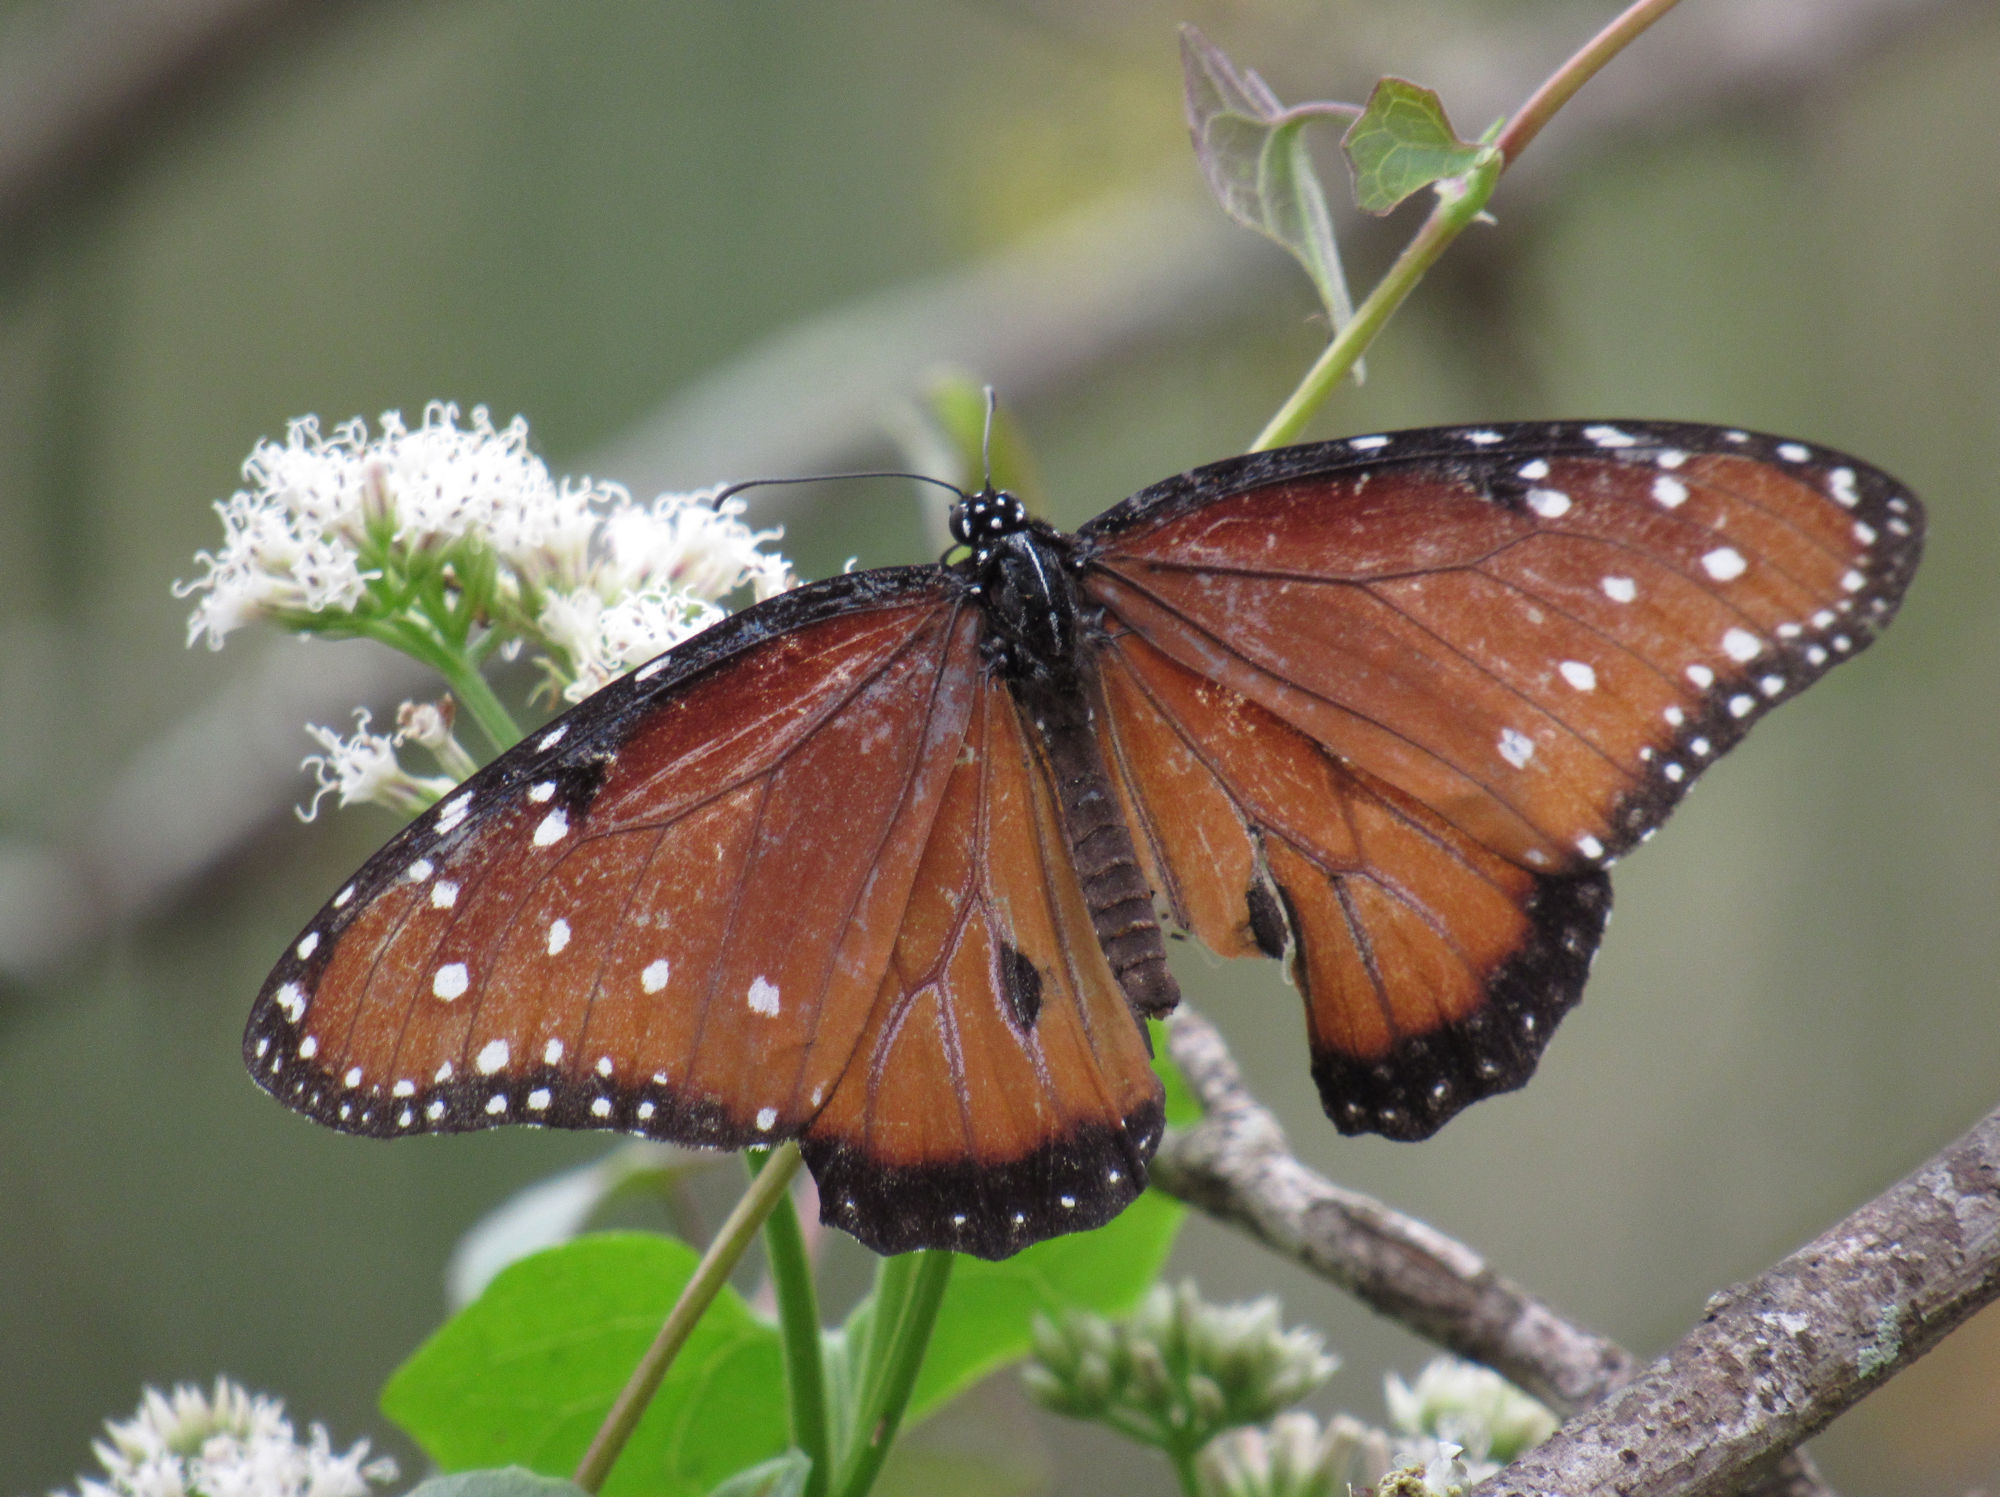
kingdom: Animalia
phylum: Arthropoda
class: Insecta
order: Lepidoptera
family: Nymphalidae
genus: Danaus
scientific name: Danaus gilippus
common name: Queen
